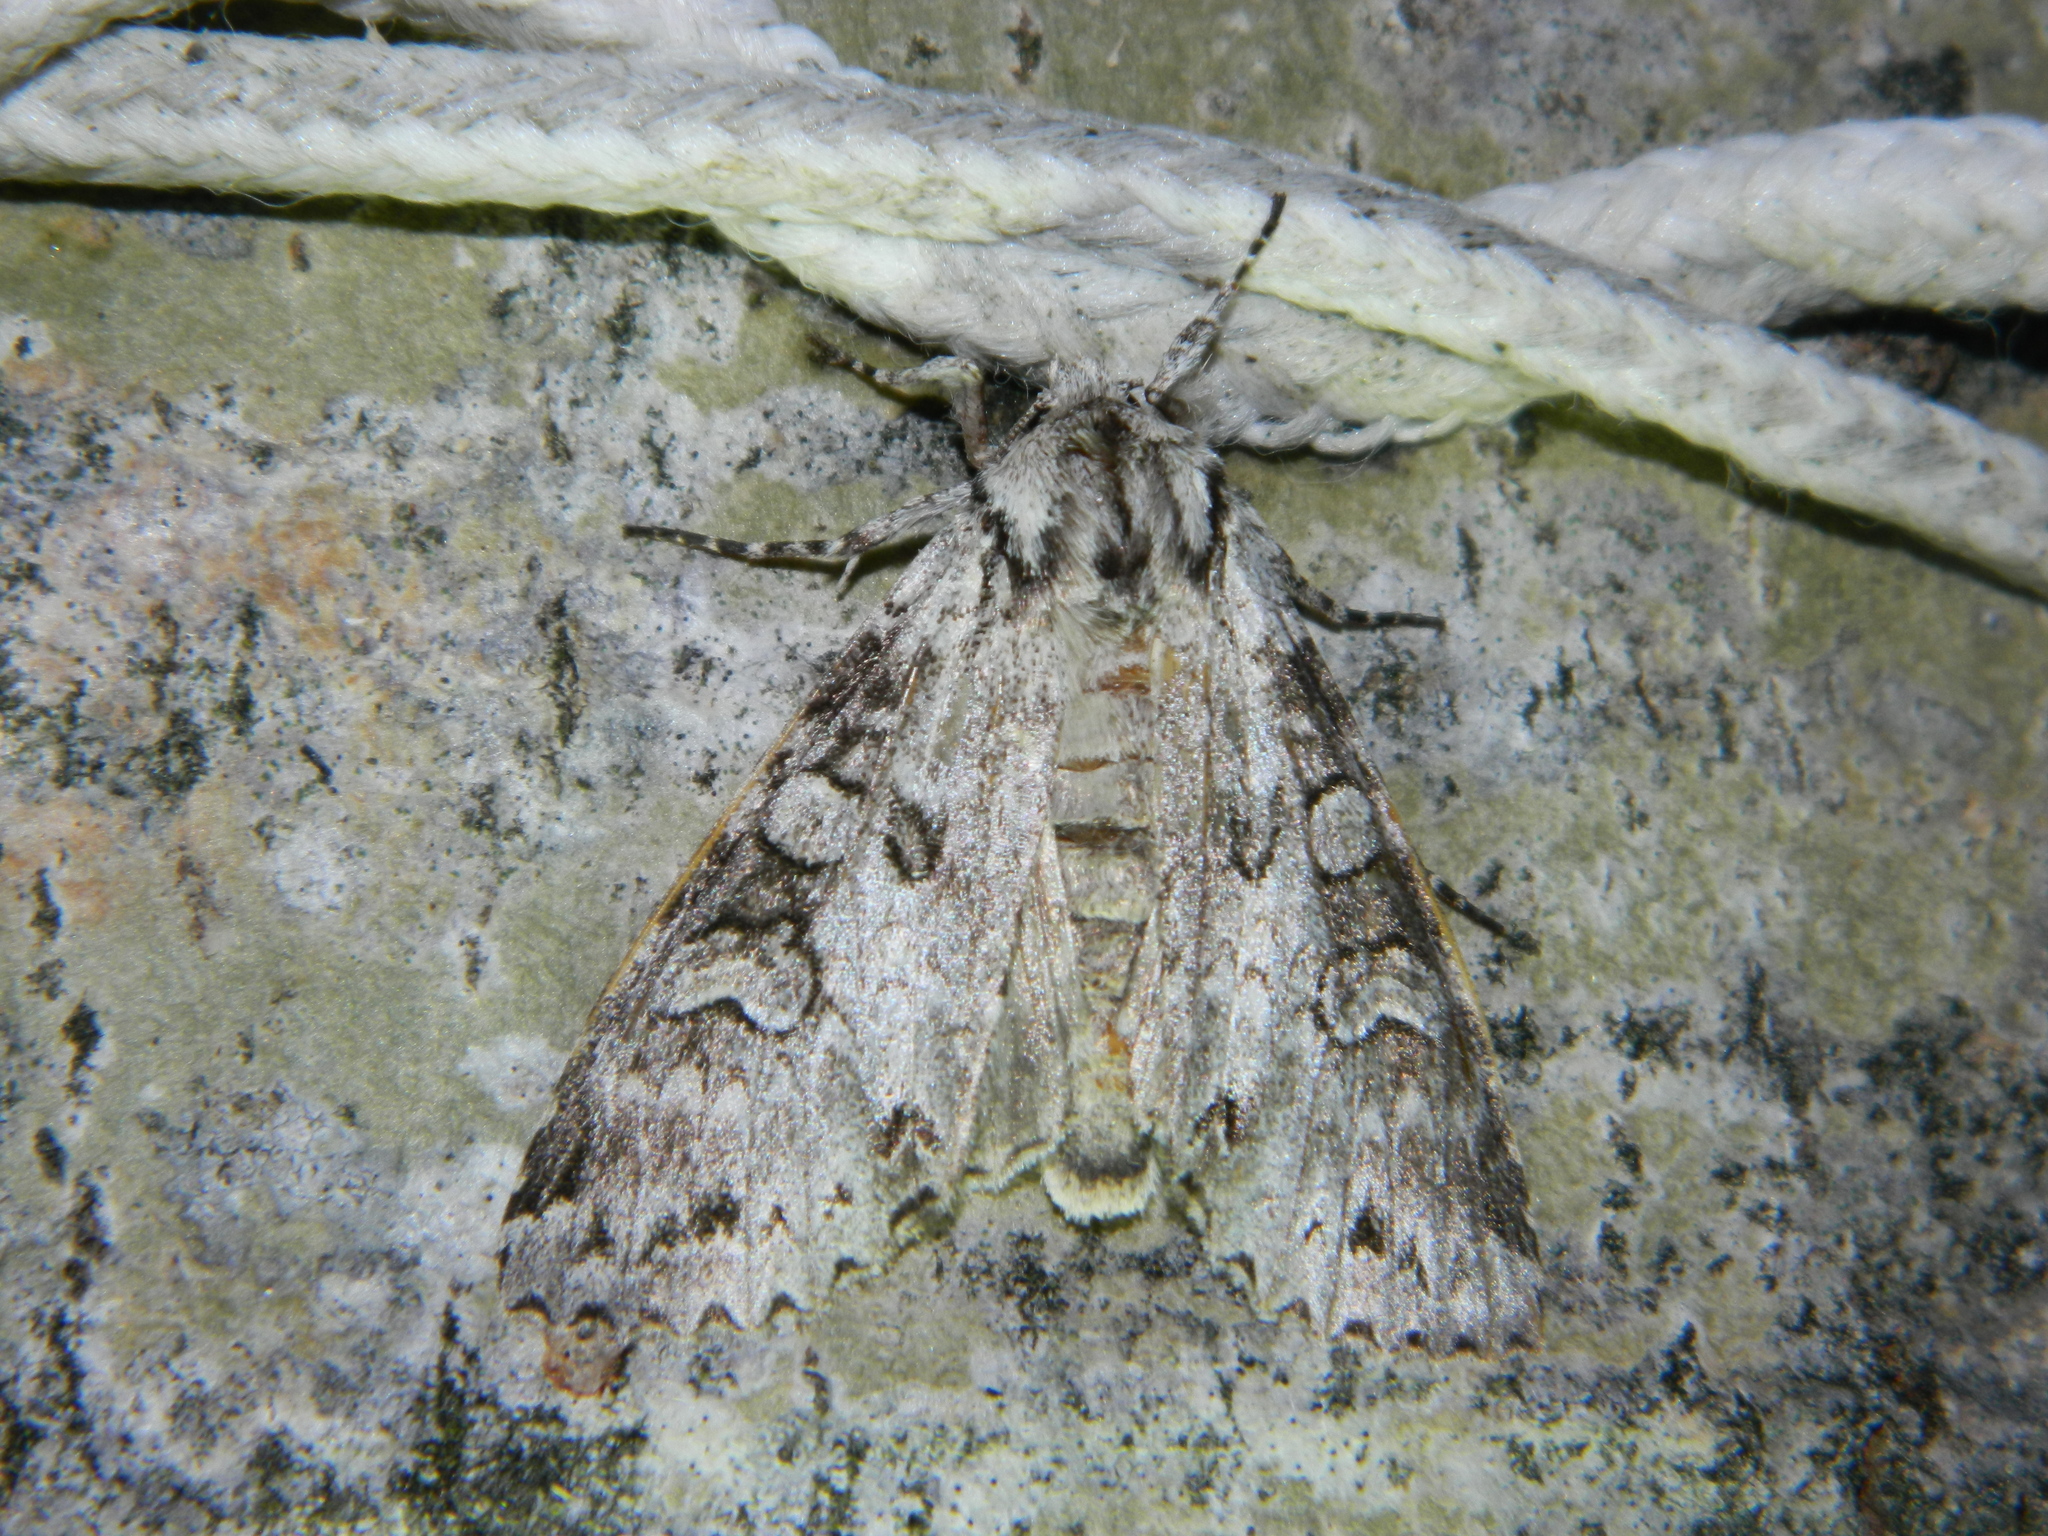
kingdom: Animalia
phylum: Arthropoda
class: Insecta
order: Lepidoptera
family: Noctuidae
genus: Polia
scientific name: Polia nimbosa
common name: Stormy arches
